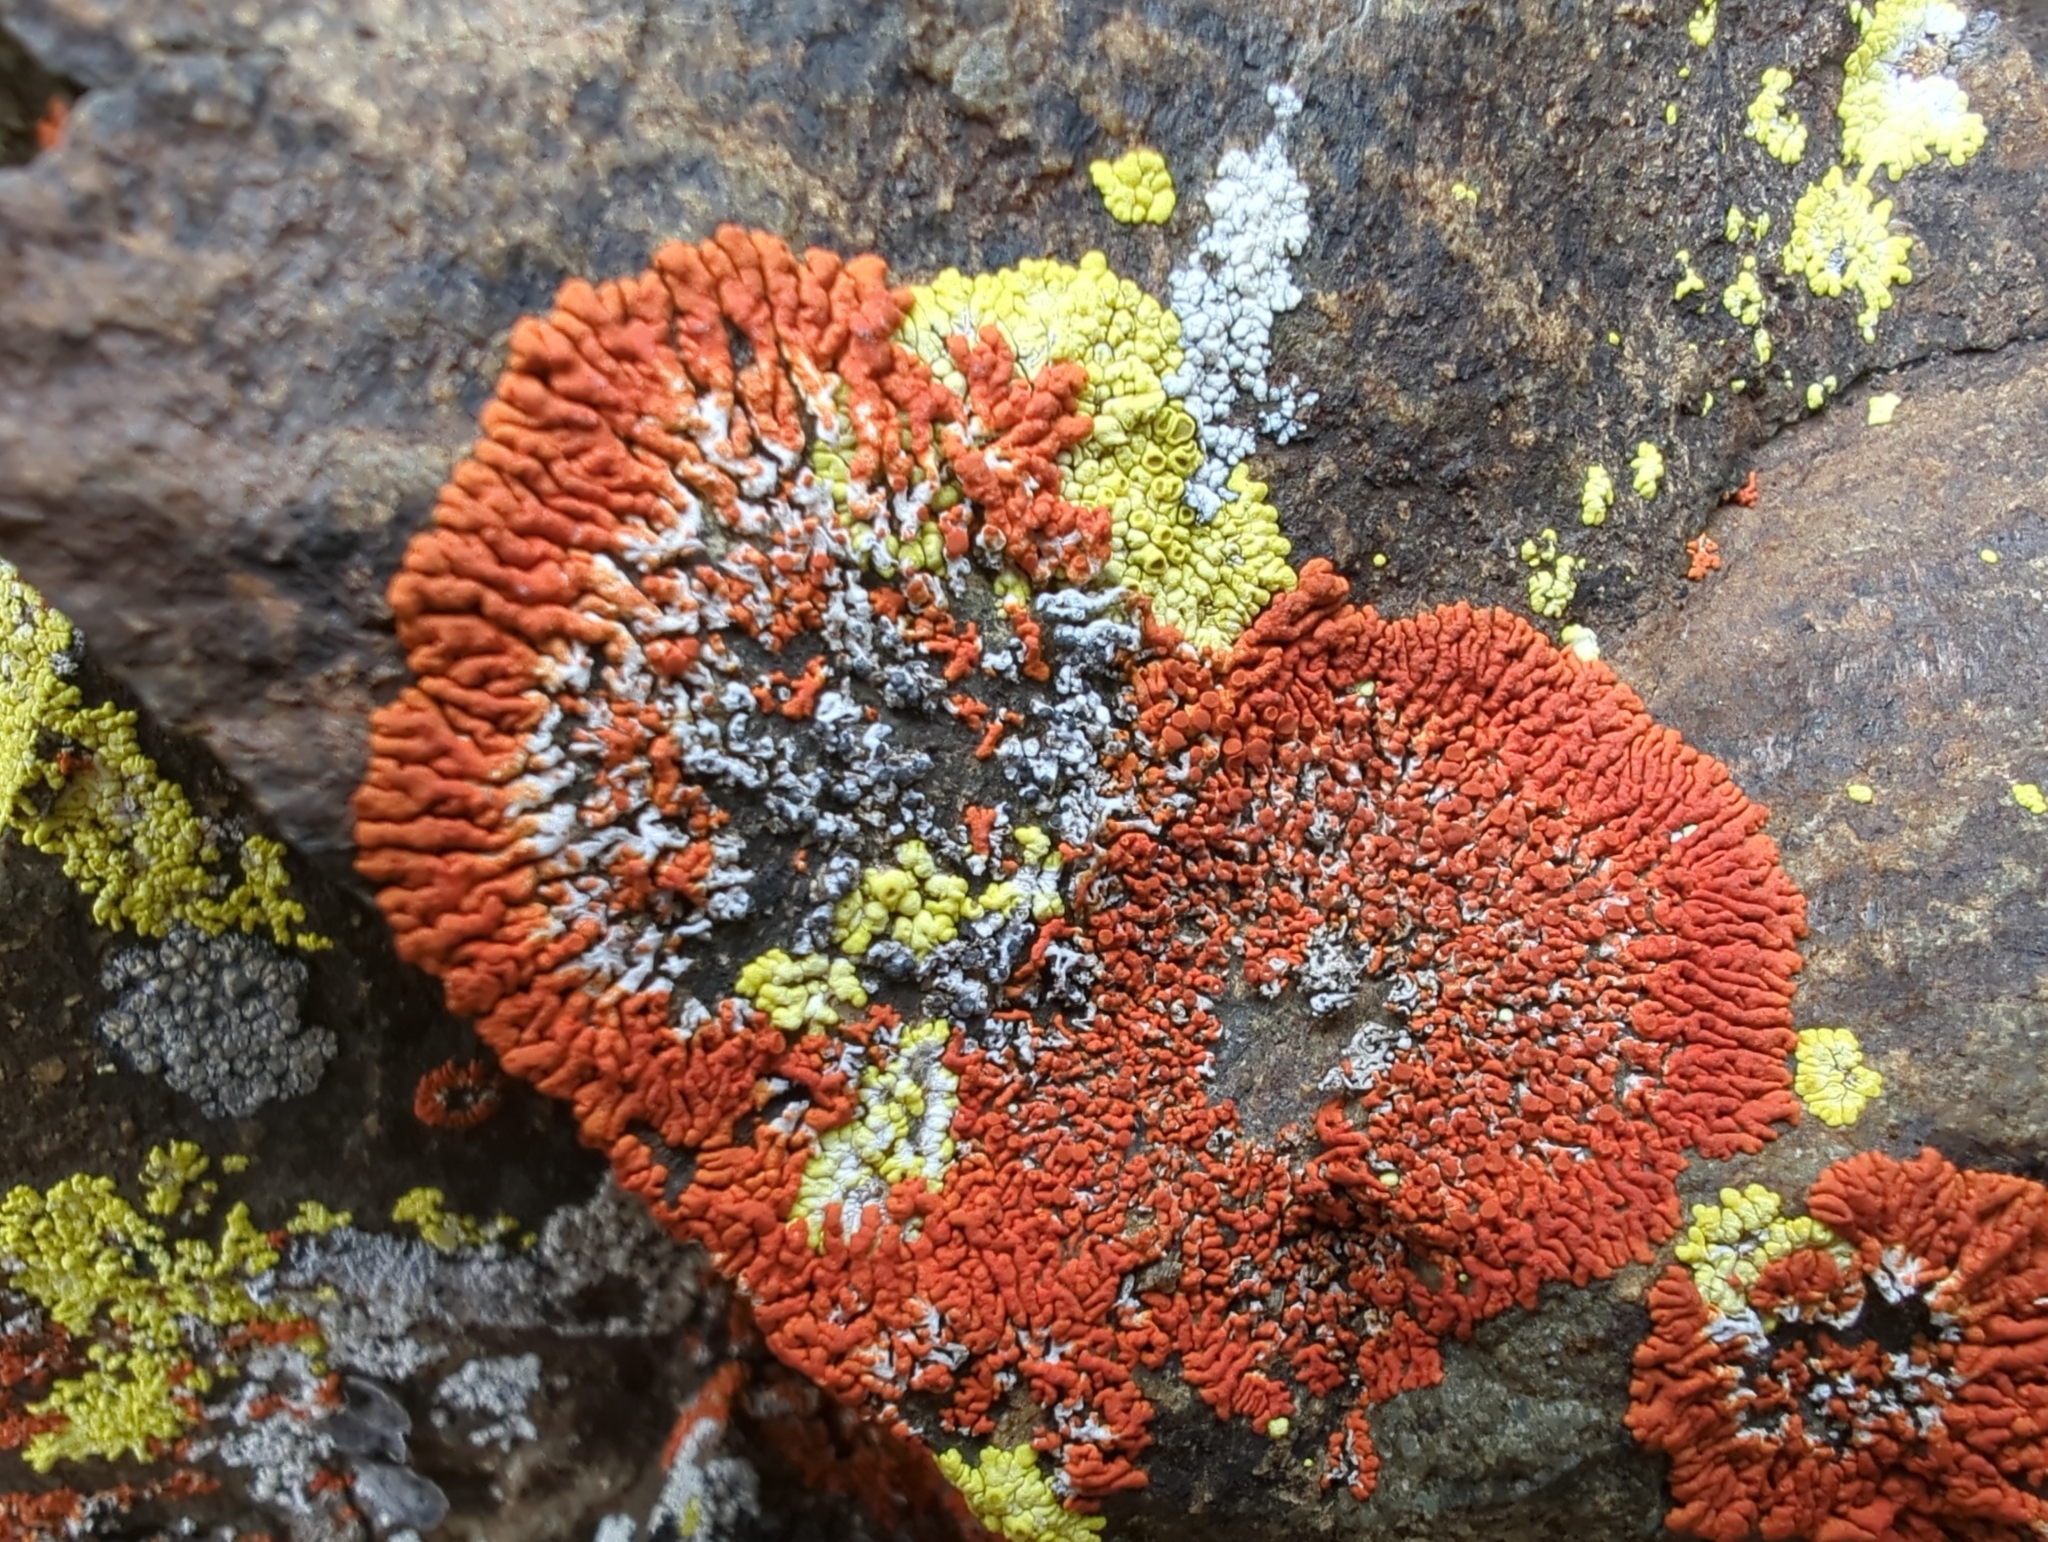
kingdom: Fungi
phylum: Ascomycota
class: Lecanoromycetes
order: Teloschistales
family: Teloschistaceae
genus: Xanthoria
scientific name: Xanthoria elegans
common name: Elegant sunburst lichen
